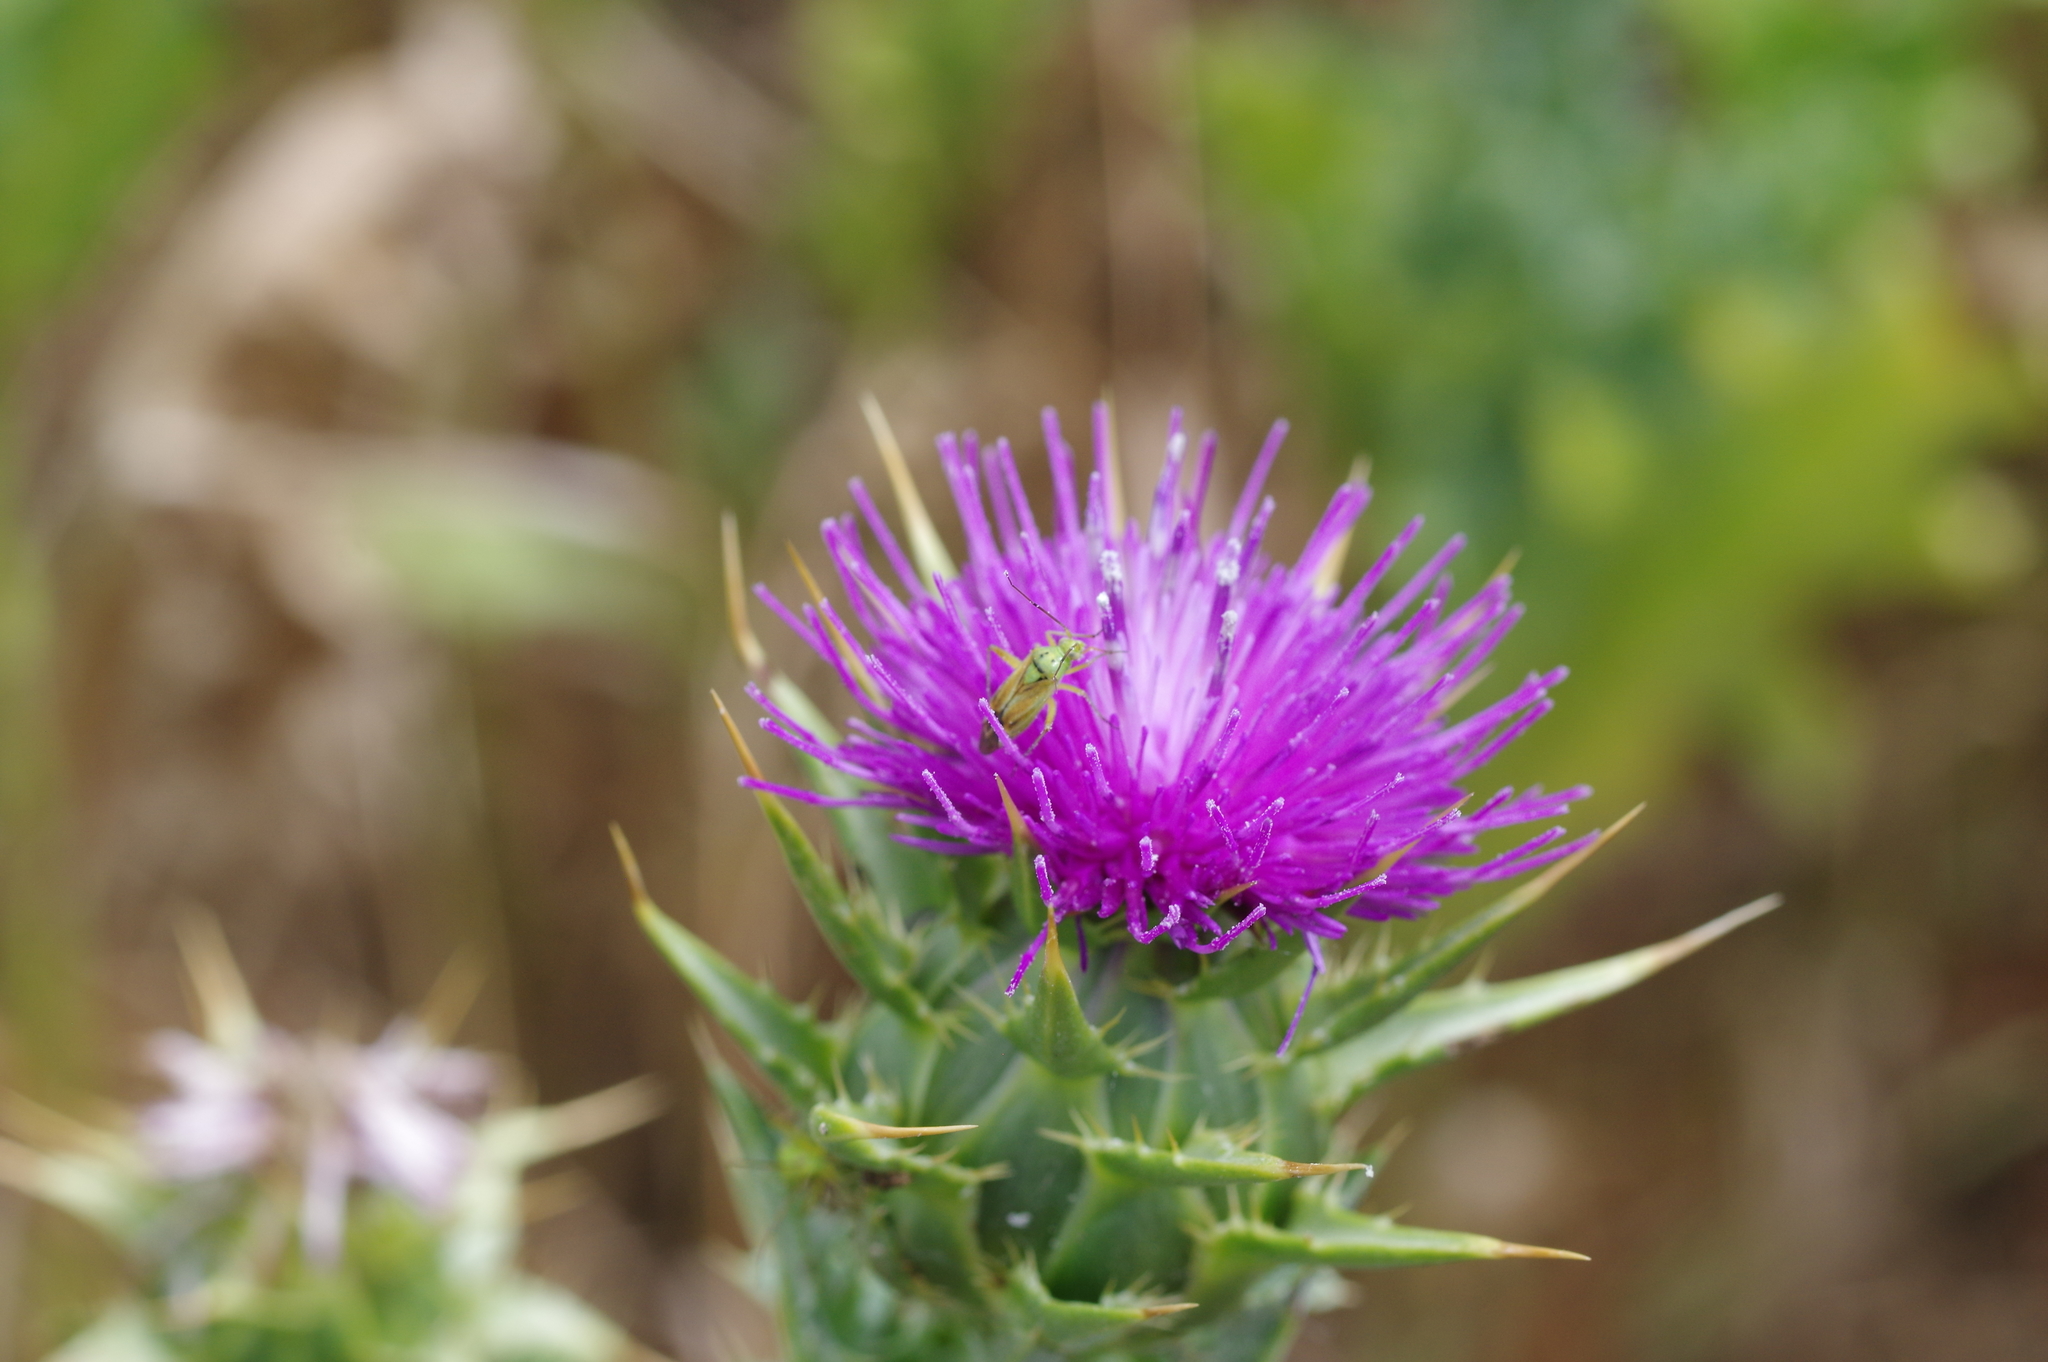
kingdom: Animalia
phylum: Arthropoda
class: Insecta
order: Hemiptera
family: Miridae
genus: Closterotomus
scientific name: Closterotomus norvegicus
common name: Plant bug
